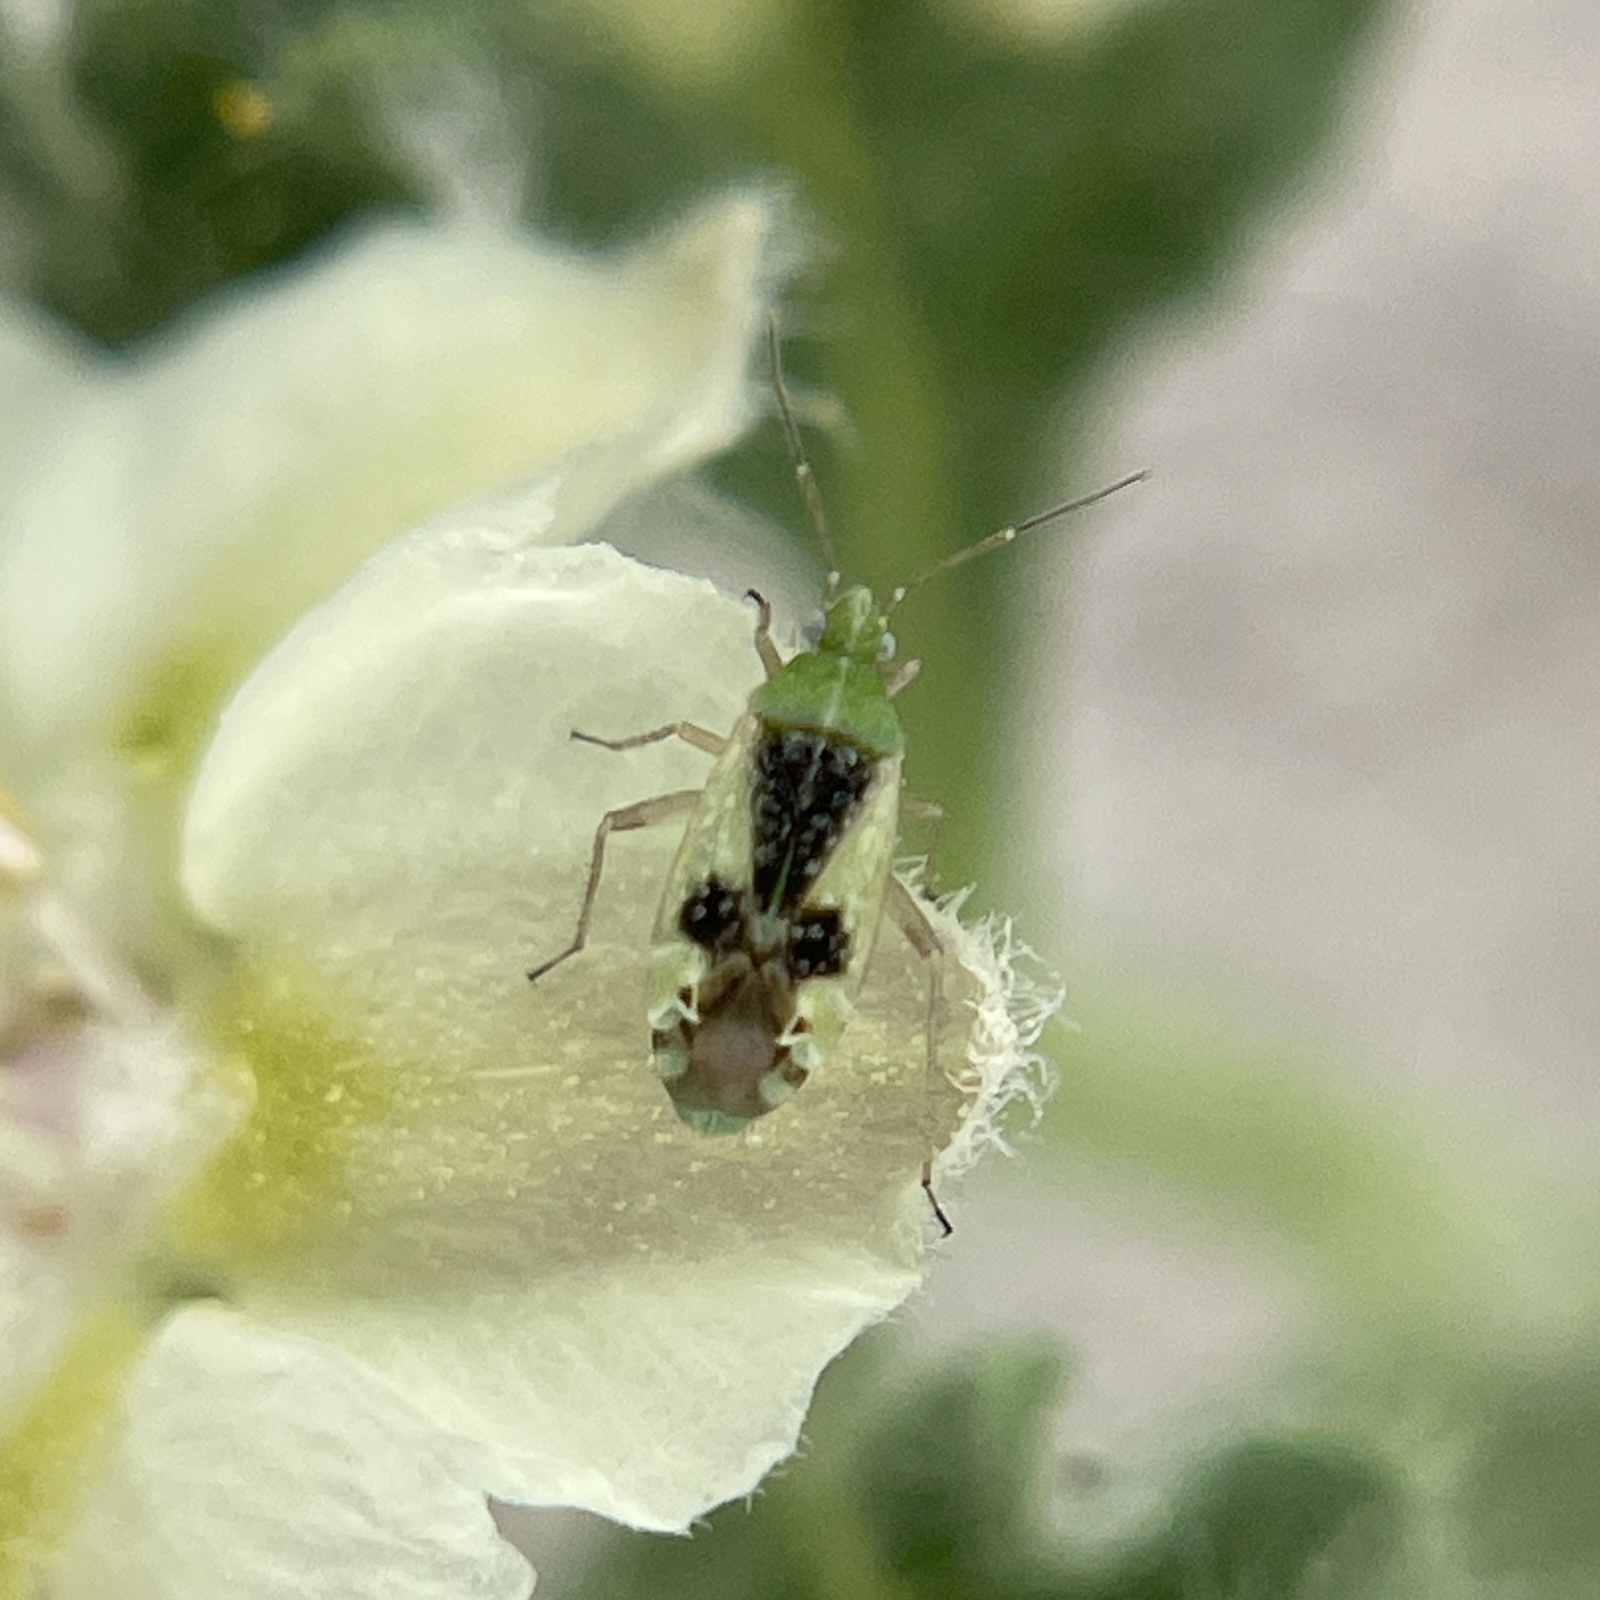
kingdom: Animalia
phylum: Arthropoda
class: Insecta
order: Hemiptera
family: Miridae
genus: Reuteroscopus
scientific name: Reuteroscopus ornatus
